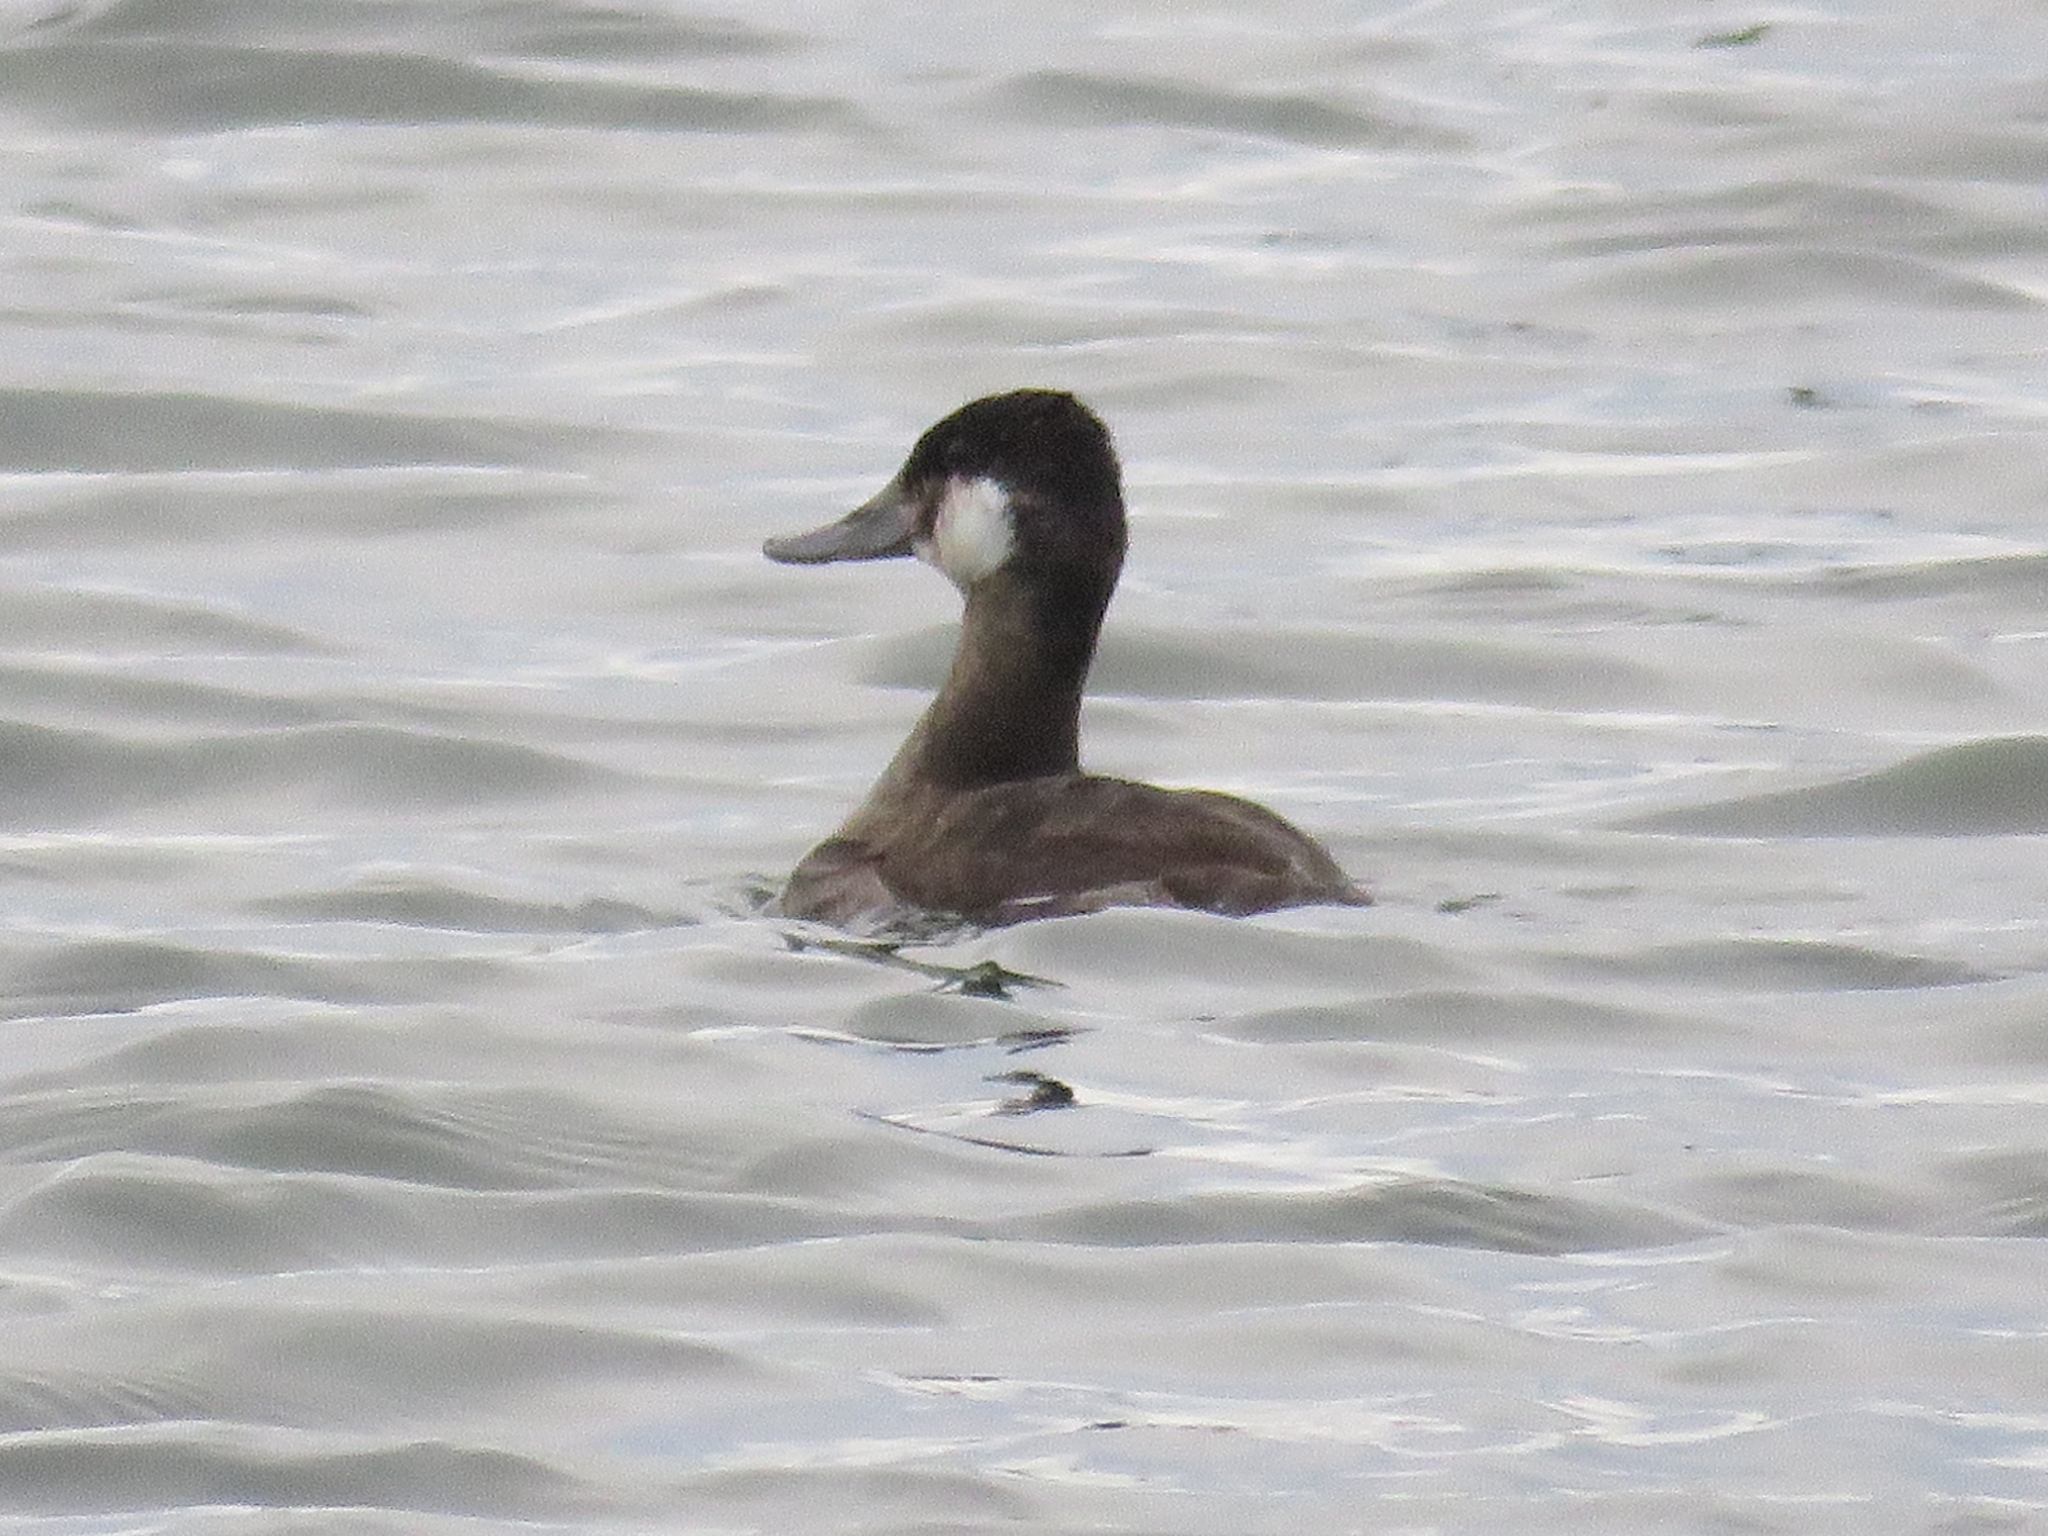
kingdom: Animalia
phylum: Chordata
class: Aves
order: Anseriformes
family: Anatidae
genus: Oxyura
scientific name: Oxyura jamaicensis
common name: Ruddy duck
